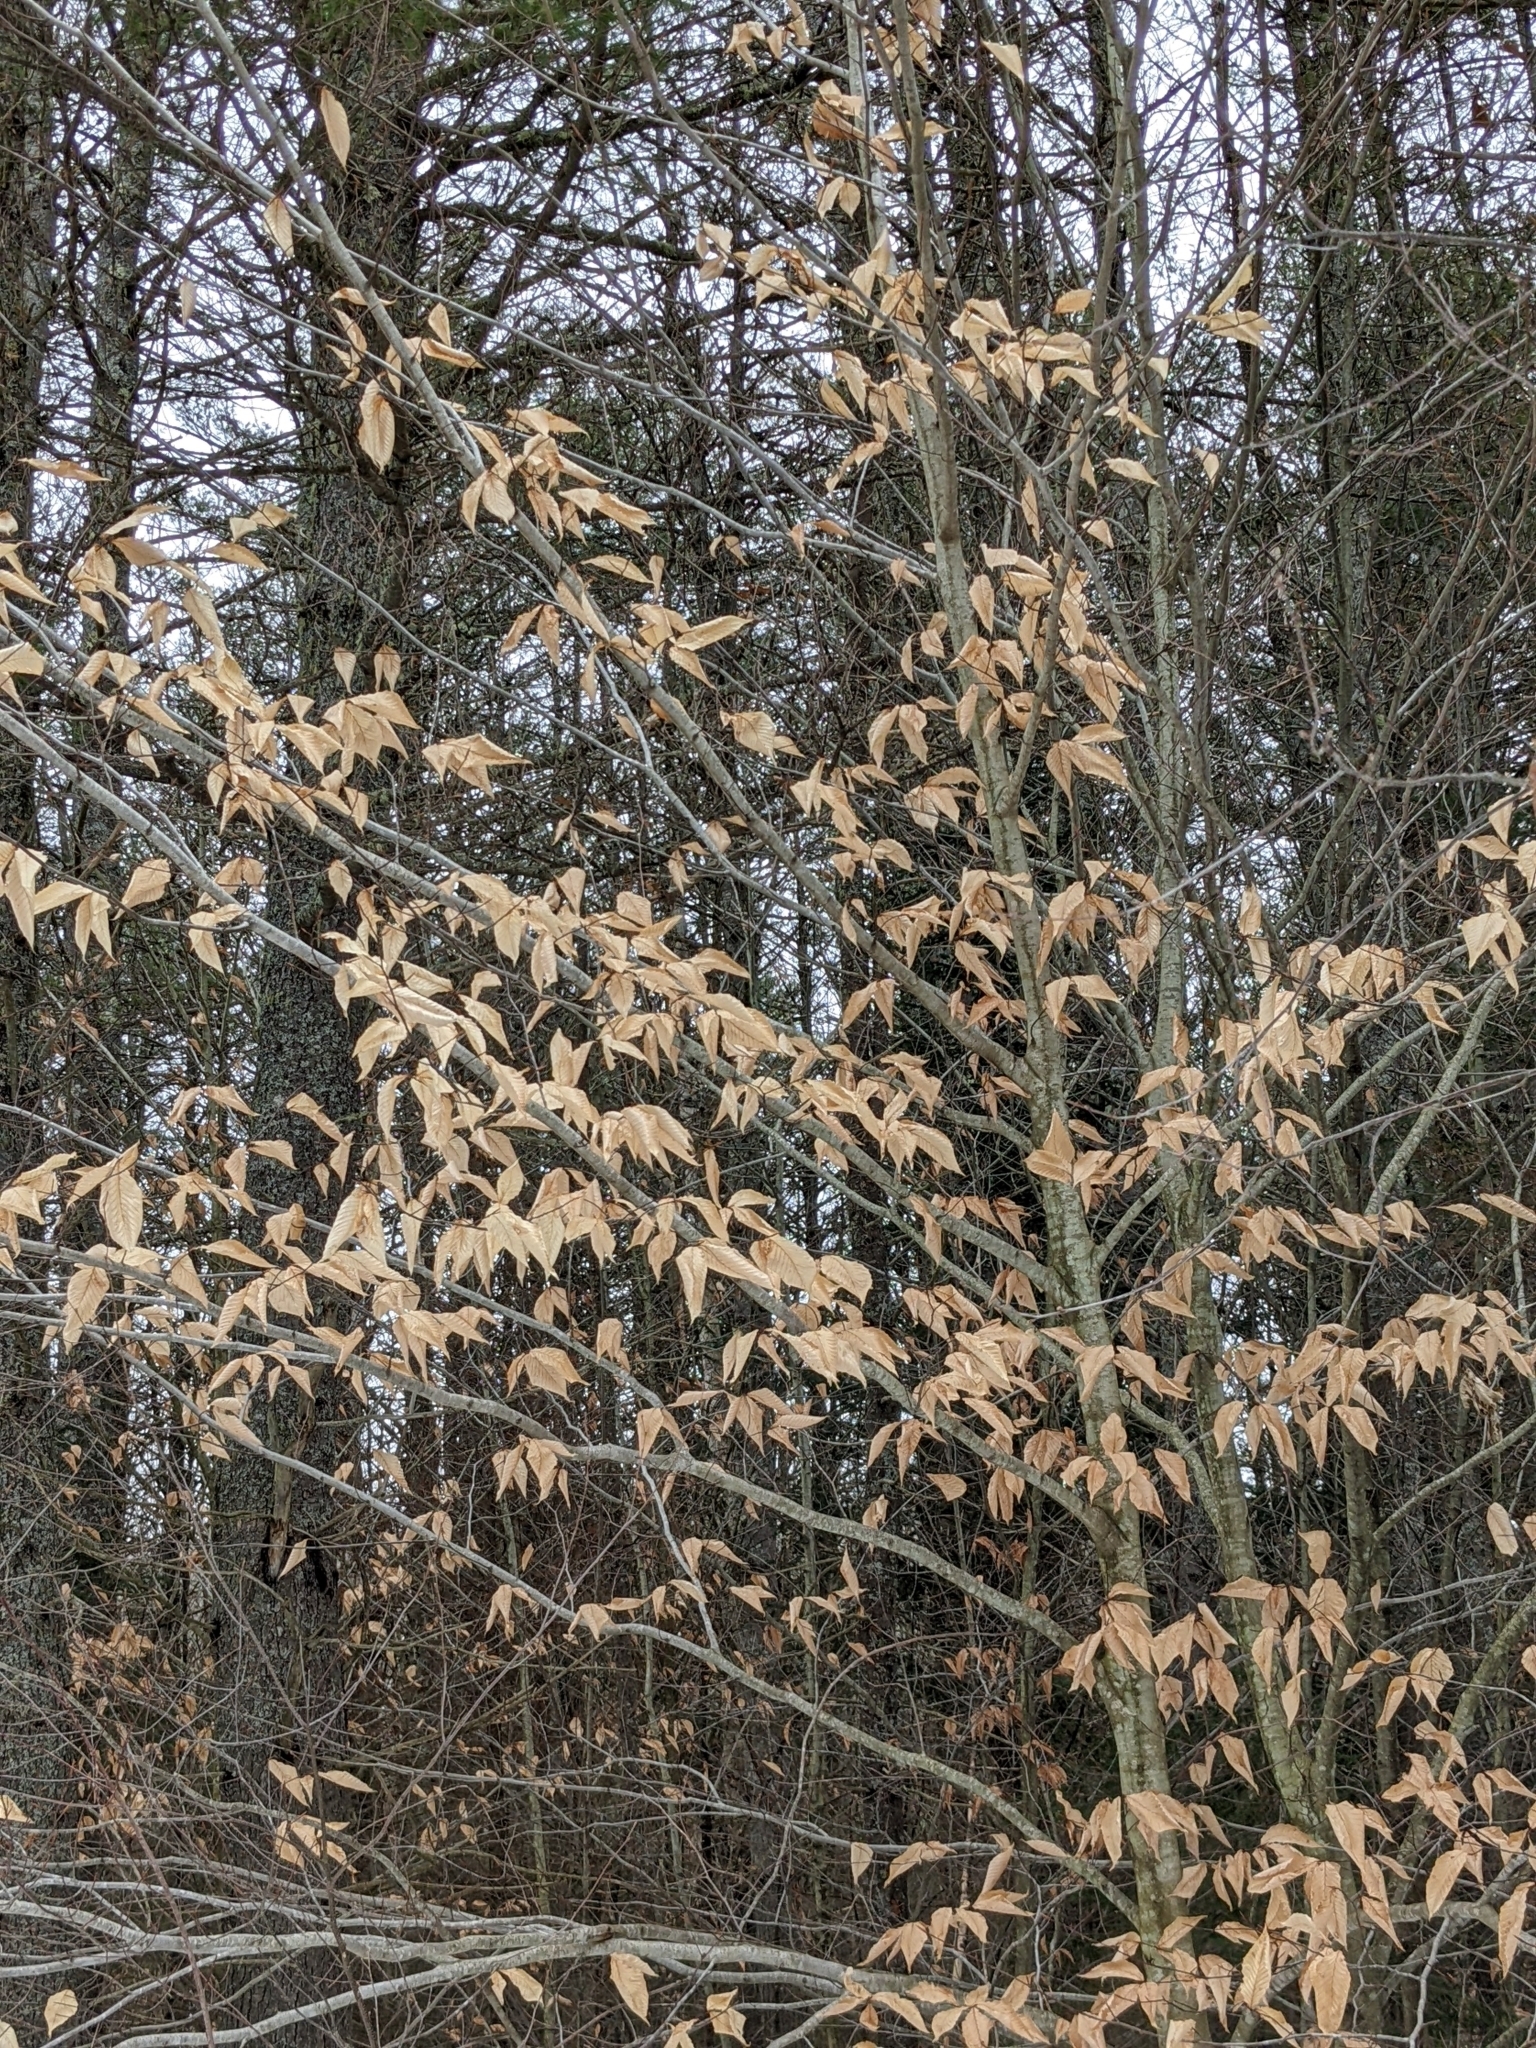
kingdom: Plantae
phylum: Tracheophyta
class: Magnoliopsida
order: Fagales
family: Fagaceae
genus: Fagus
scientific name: Fagus grandifolia
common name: American beech
